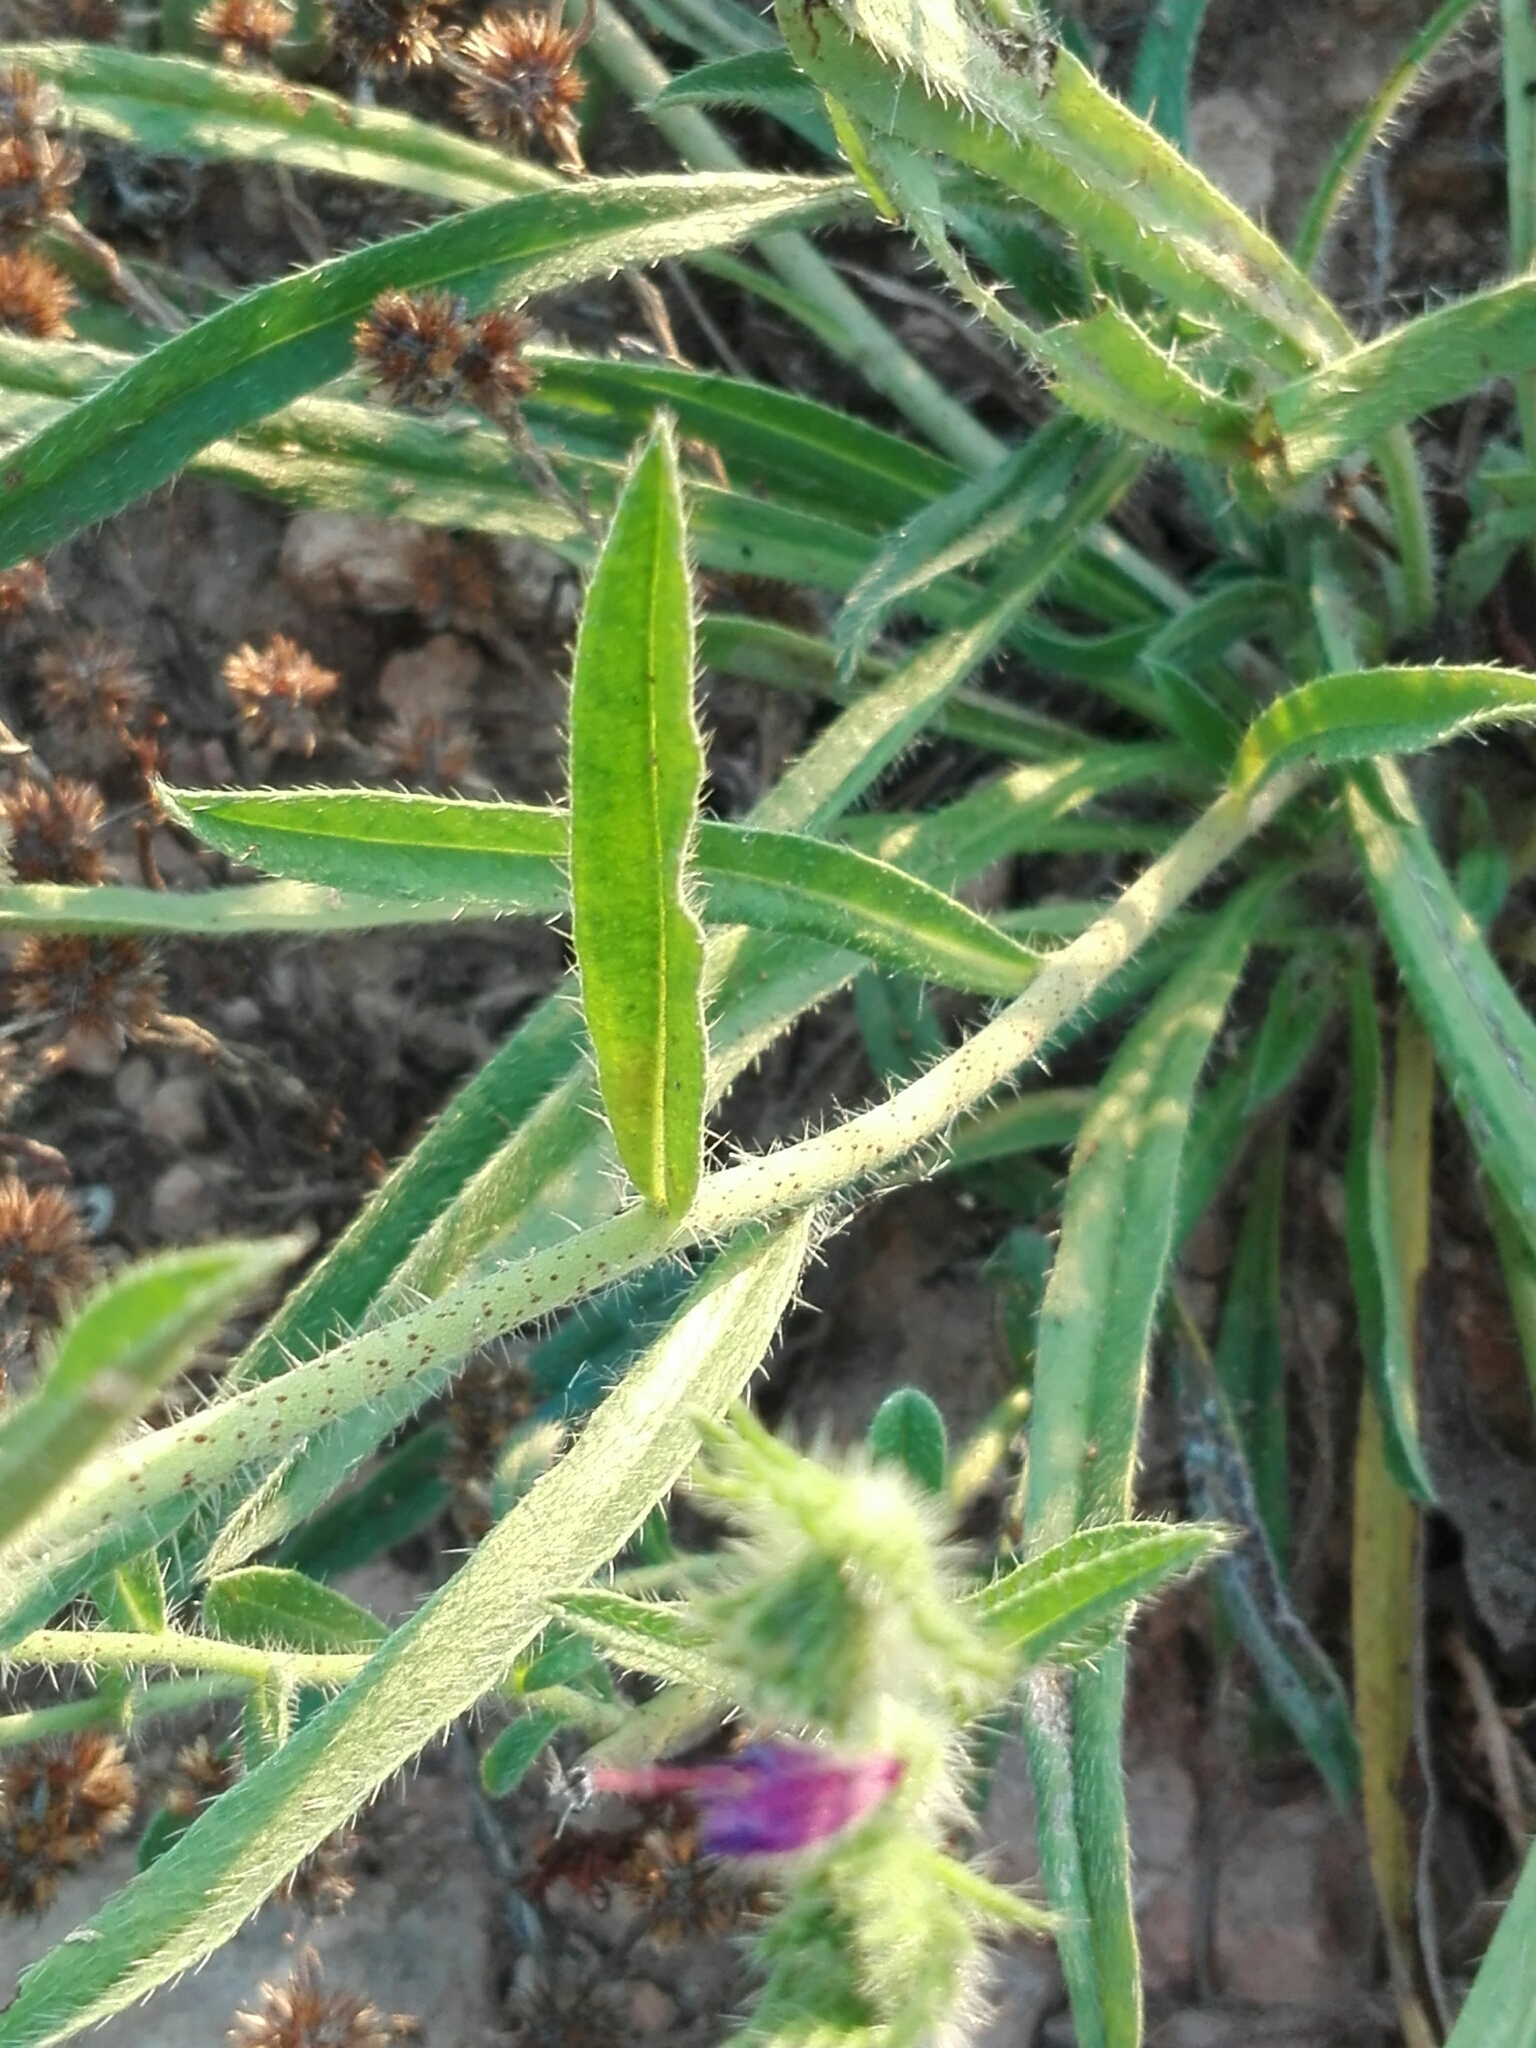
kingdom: Plantae
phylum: Tracheophyta
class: Magnoliopsida
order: Boraginales
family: Boraginaceae
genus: Echium
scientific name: Echium vulgare
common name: Common viper's bugloss
